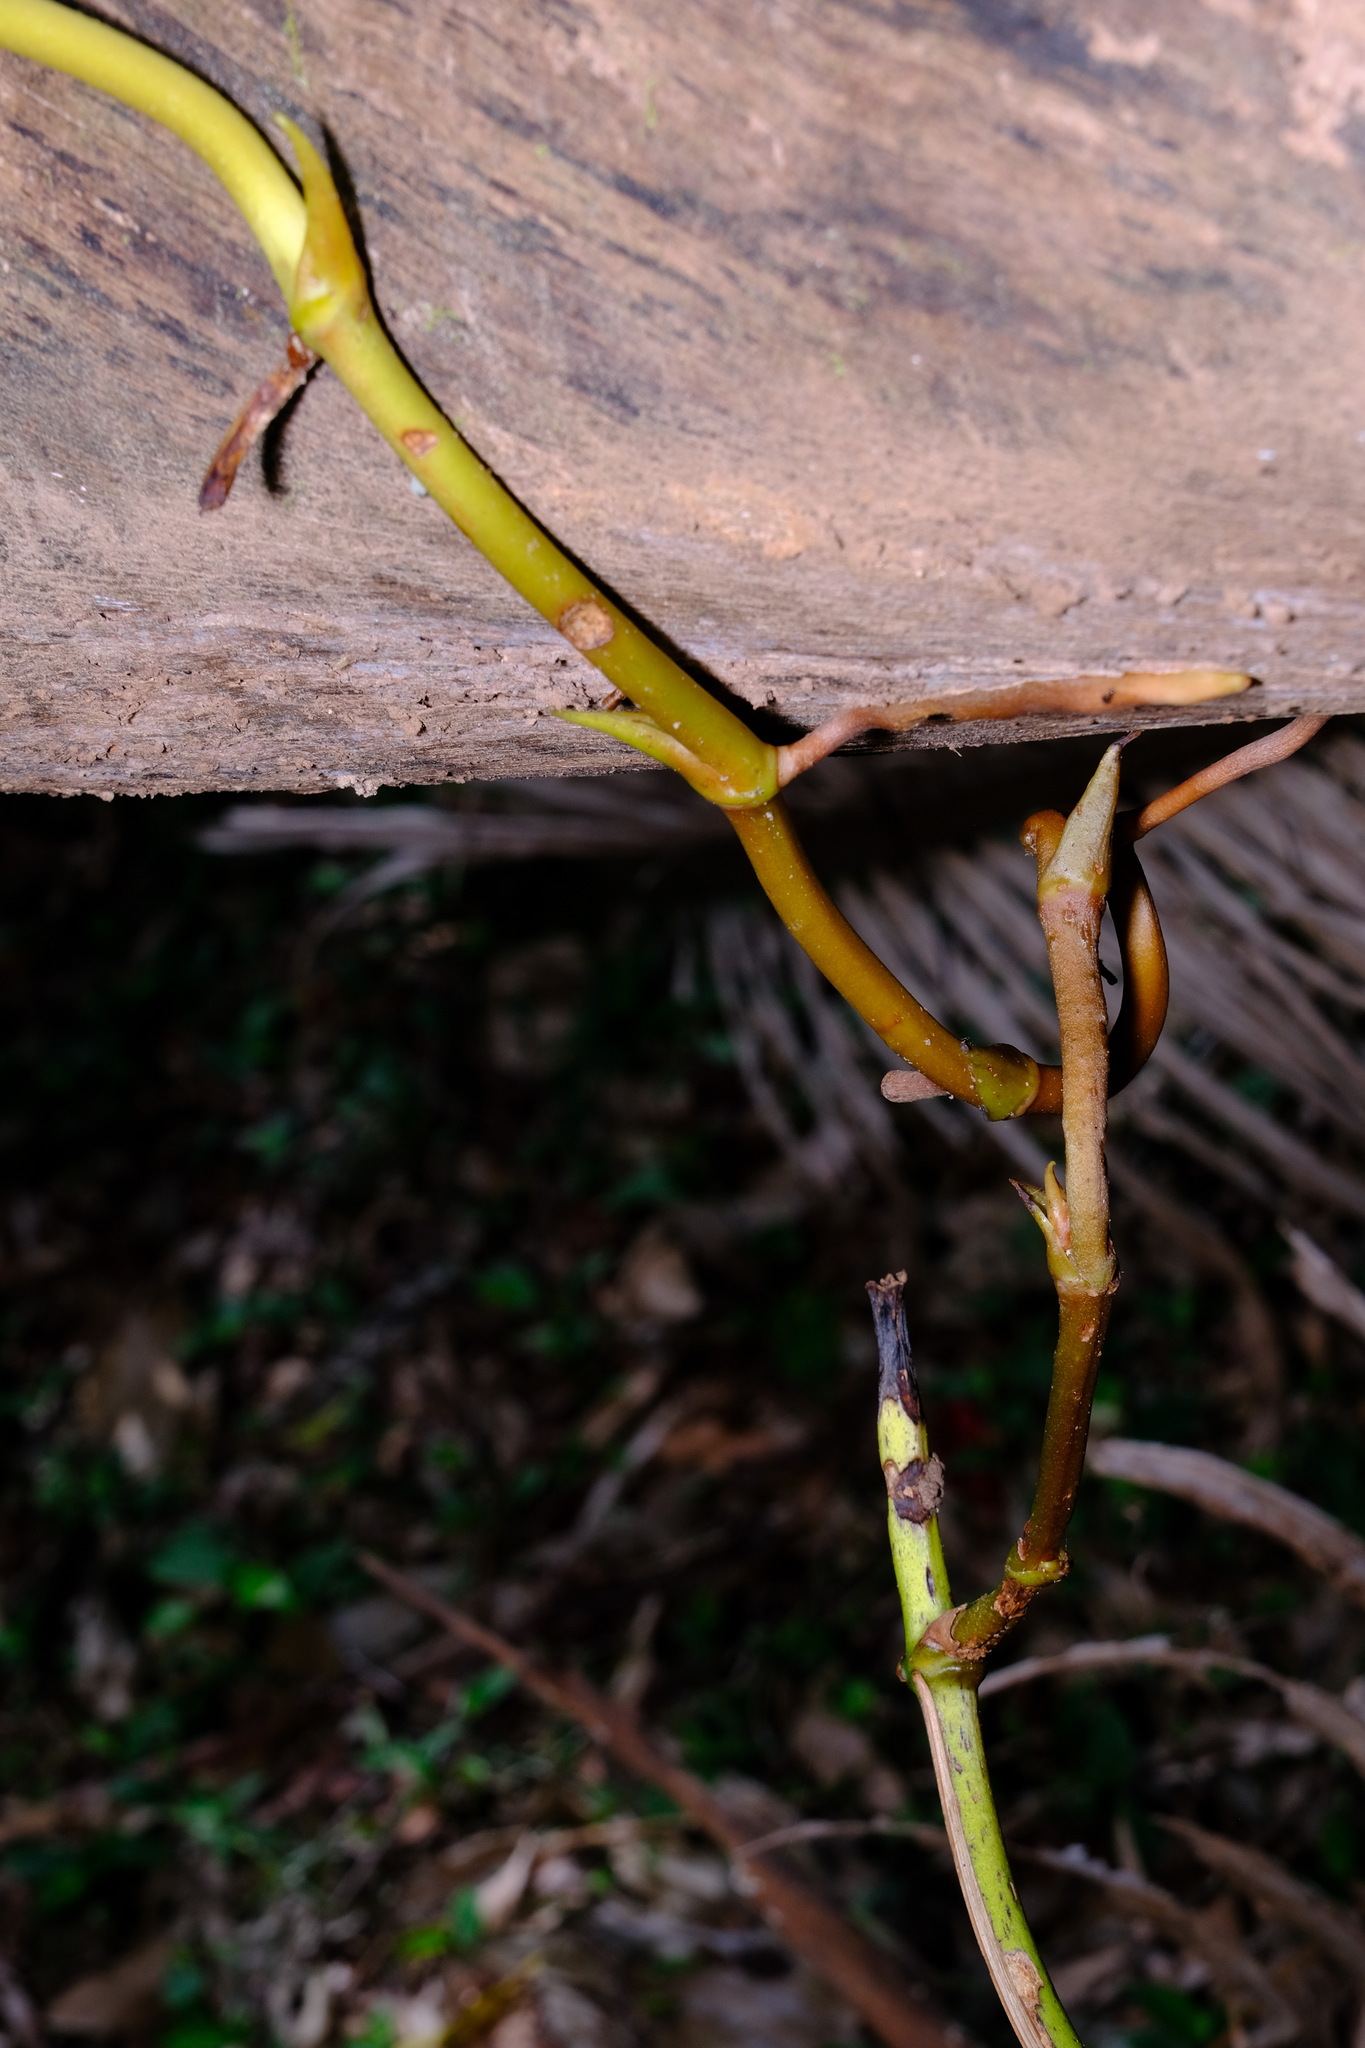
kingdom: Plantae
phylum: Tracheophyta
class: Liliopsida
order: Asparagales
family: Orchidaceae
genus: Pseudovanilla
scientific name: Pseudovanilla foliata
